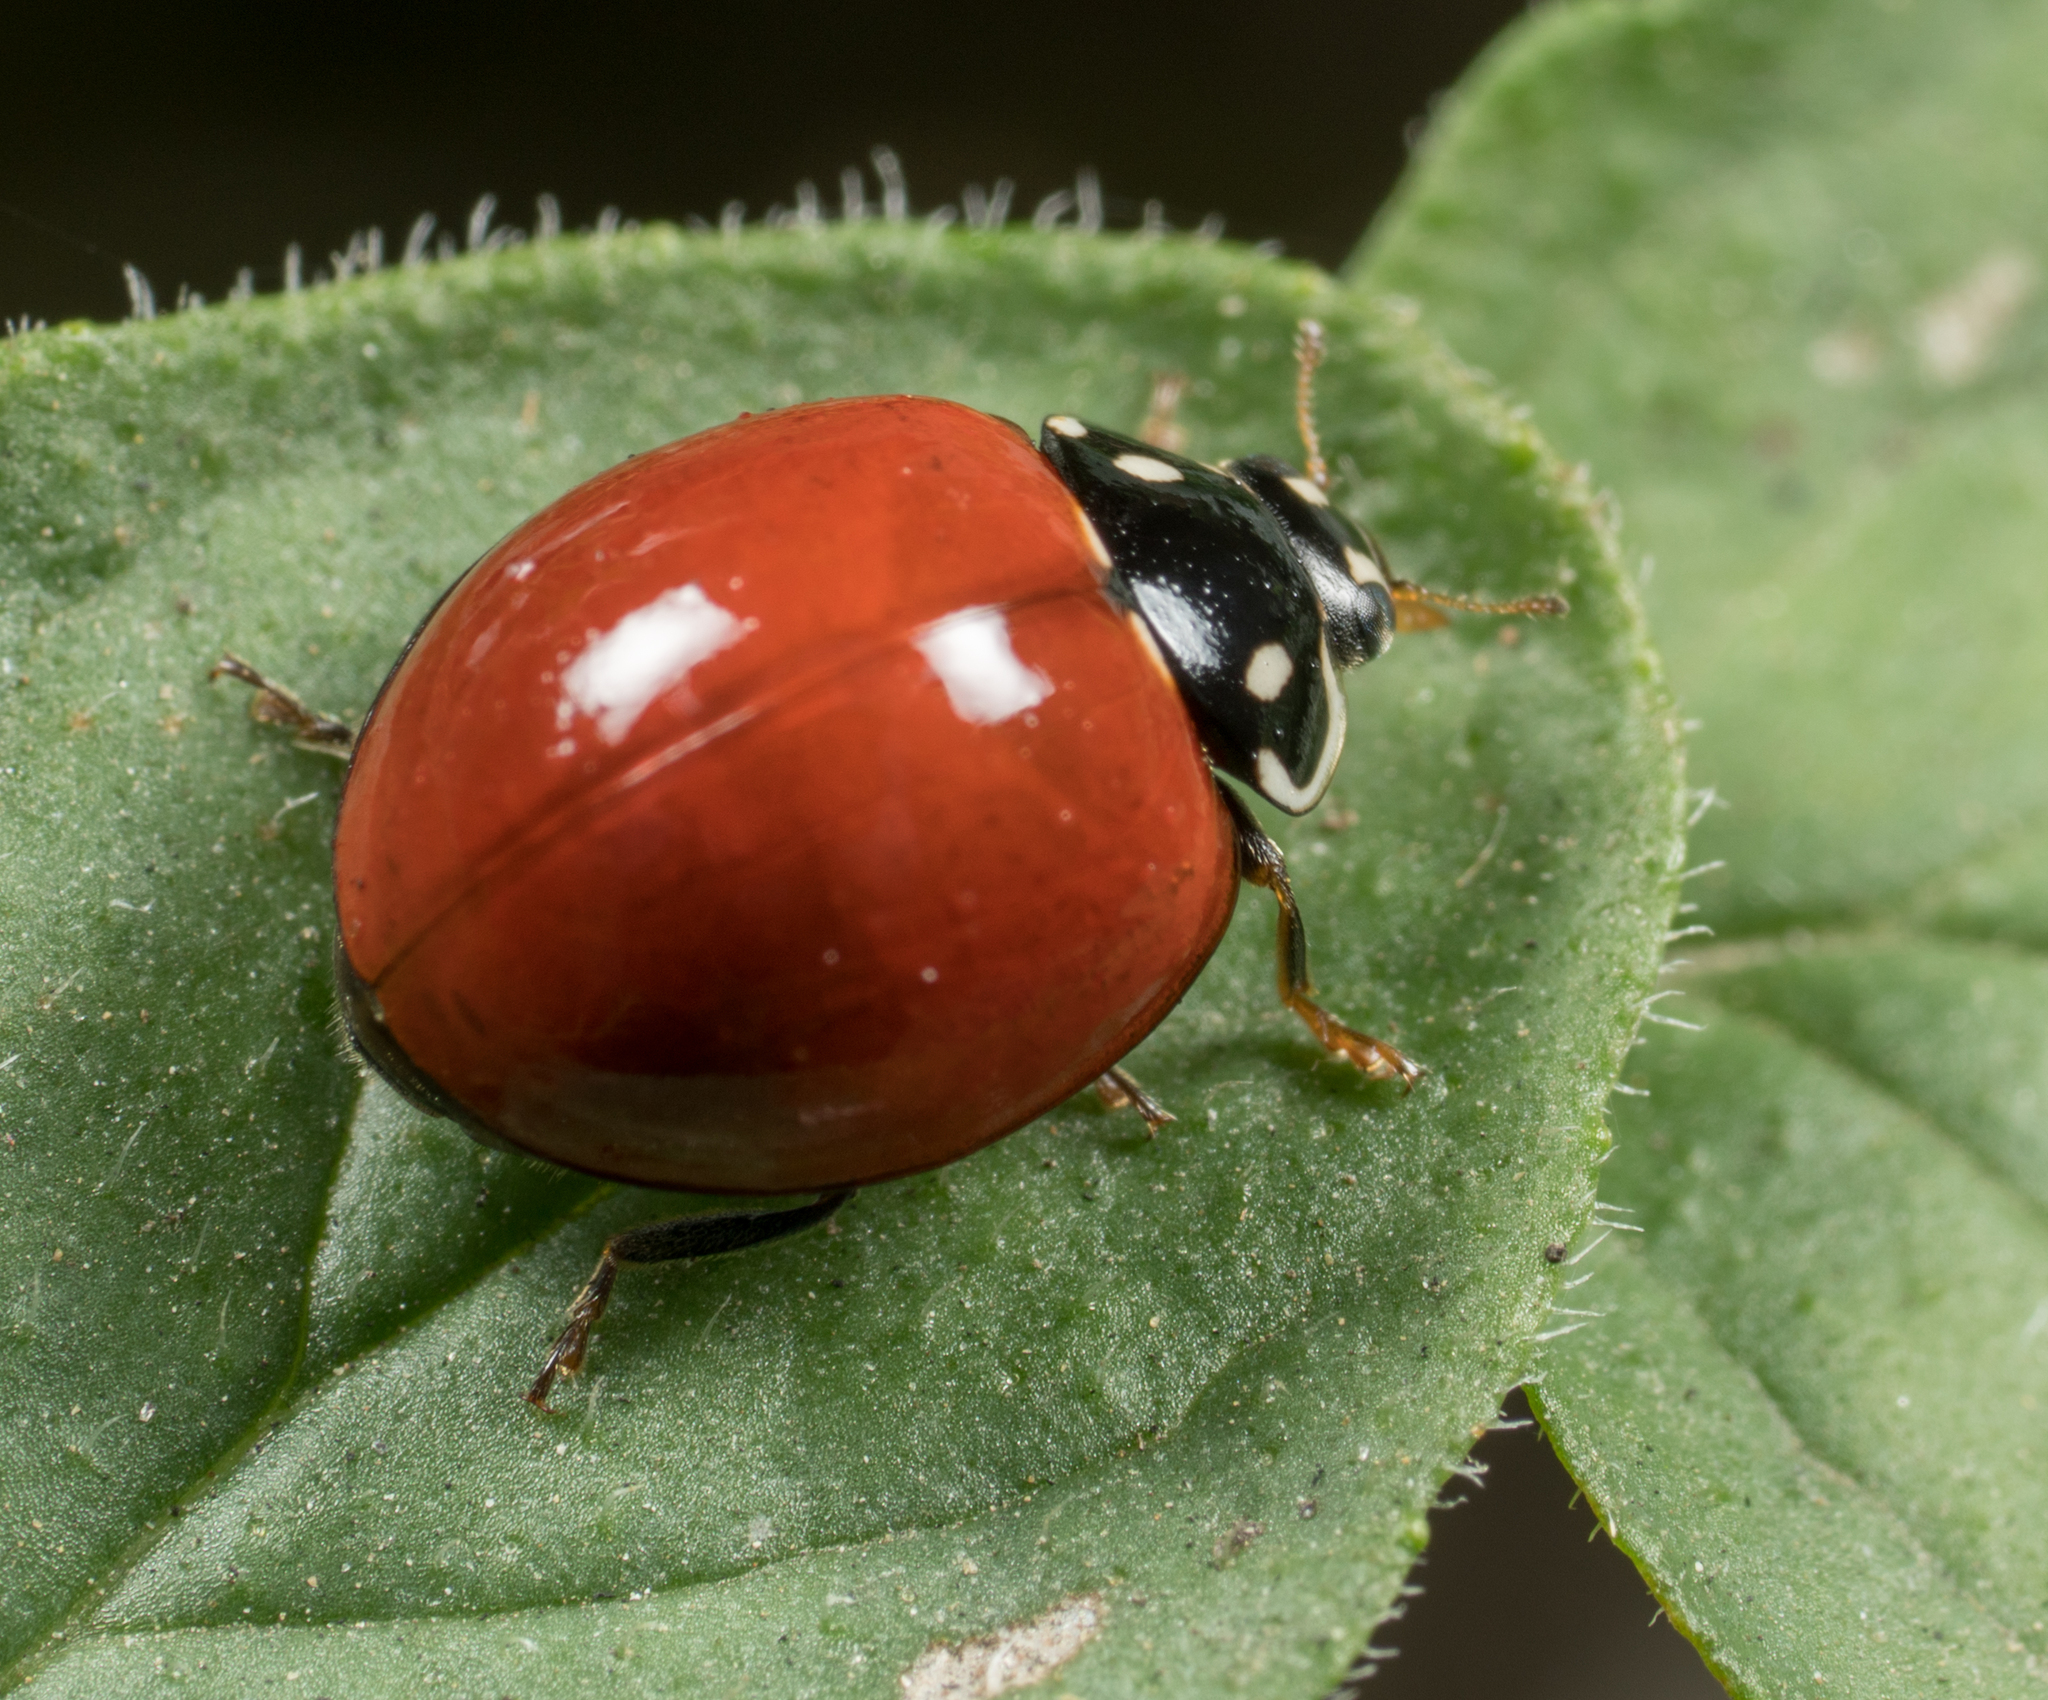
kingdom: Animalia
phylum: Arthropoda
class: Insecta
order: Coleoptera
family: Coccinellidae
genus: Cycloneda
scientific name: Cycloneda sanguinea
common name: Ladybird beetle
